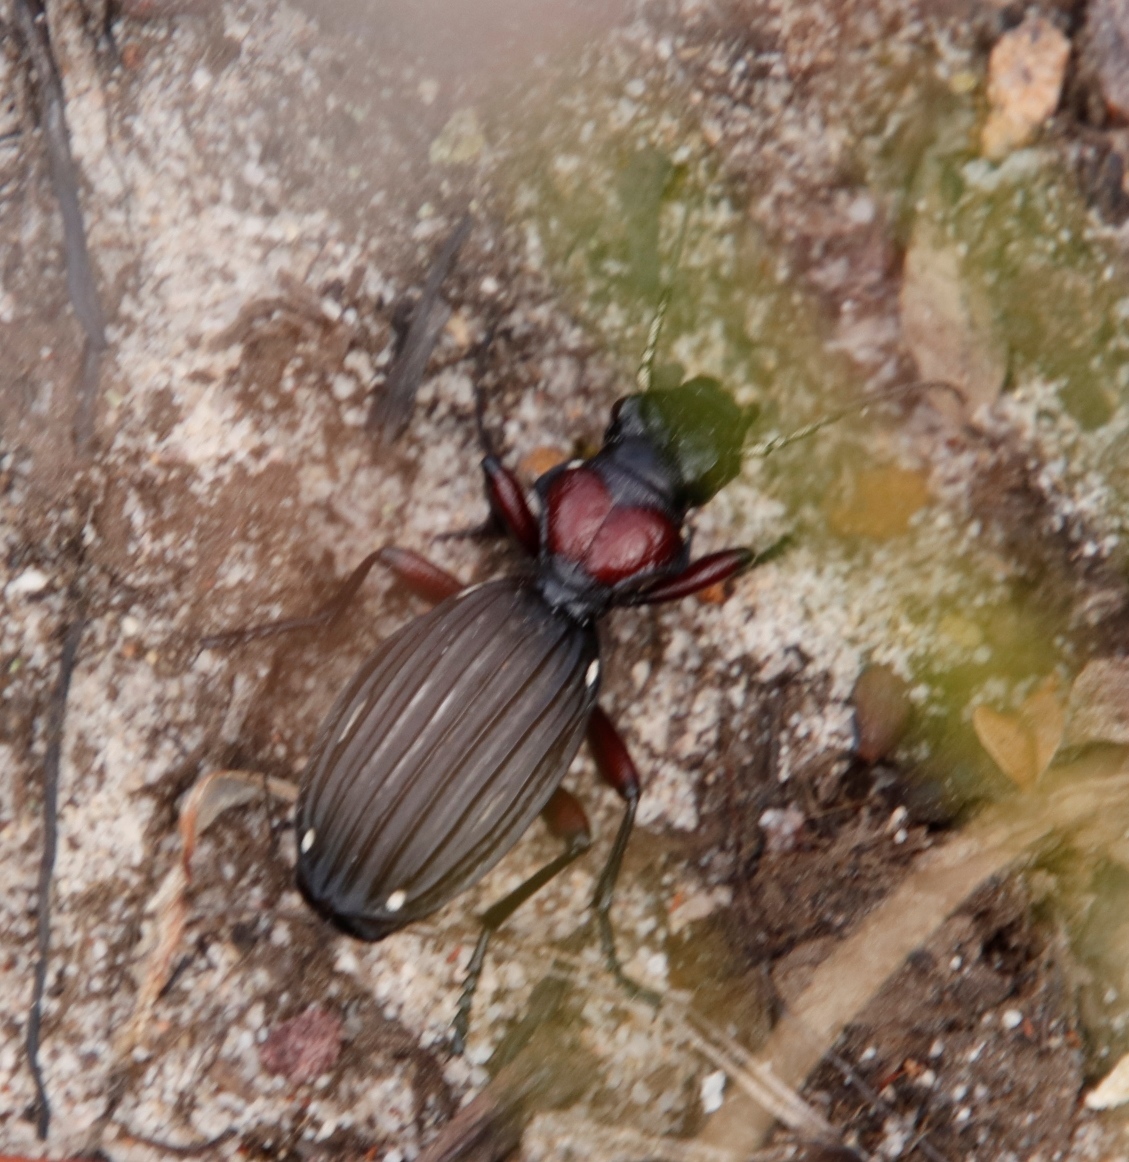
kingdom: Animalia
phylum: Arthropoda
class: Insecta
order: Coleoptera
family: Carabidae
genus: Anthia
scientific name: Anthia decemguttata
